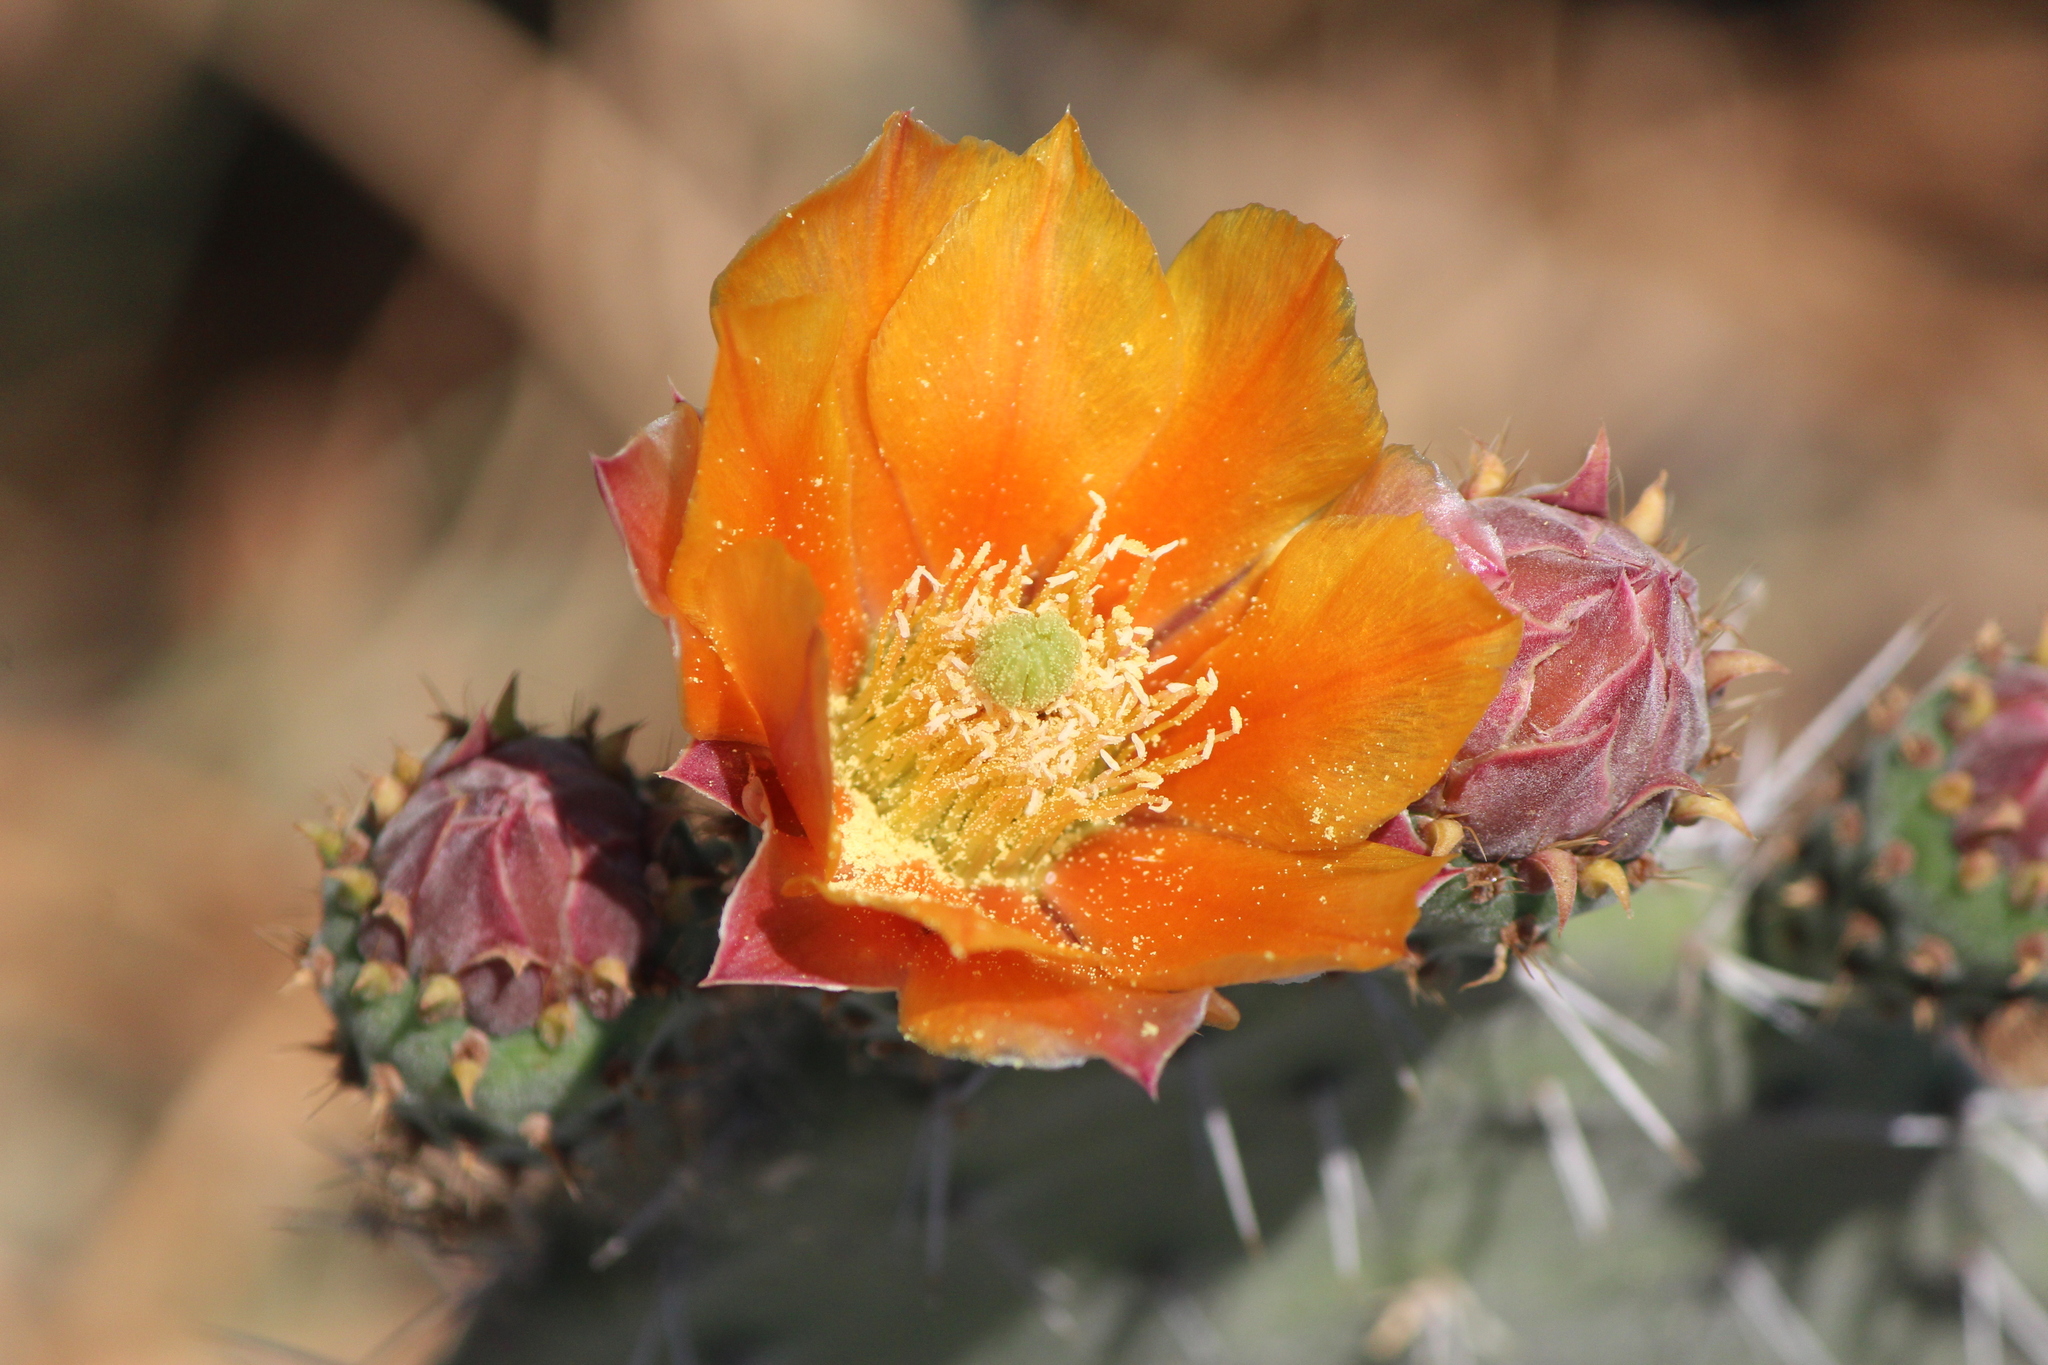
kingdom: Plantae
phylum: Tracheophyta
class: Magnoliopsida
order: Caryophyllales
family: Cactaceae
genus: Opuntia
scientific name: Opuntia tomentosa
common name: Woollyjoint pricklypear
